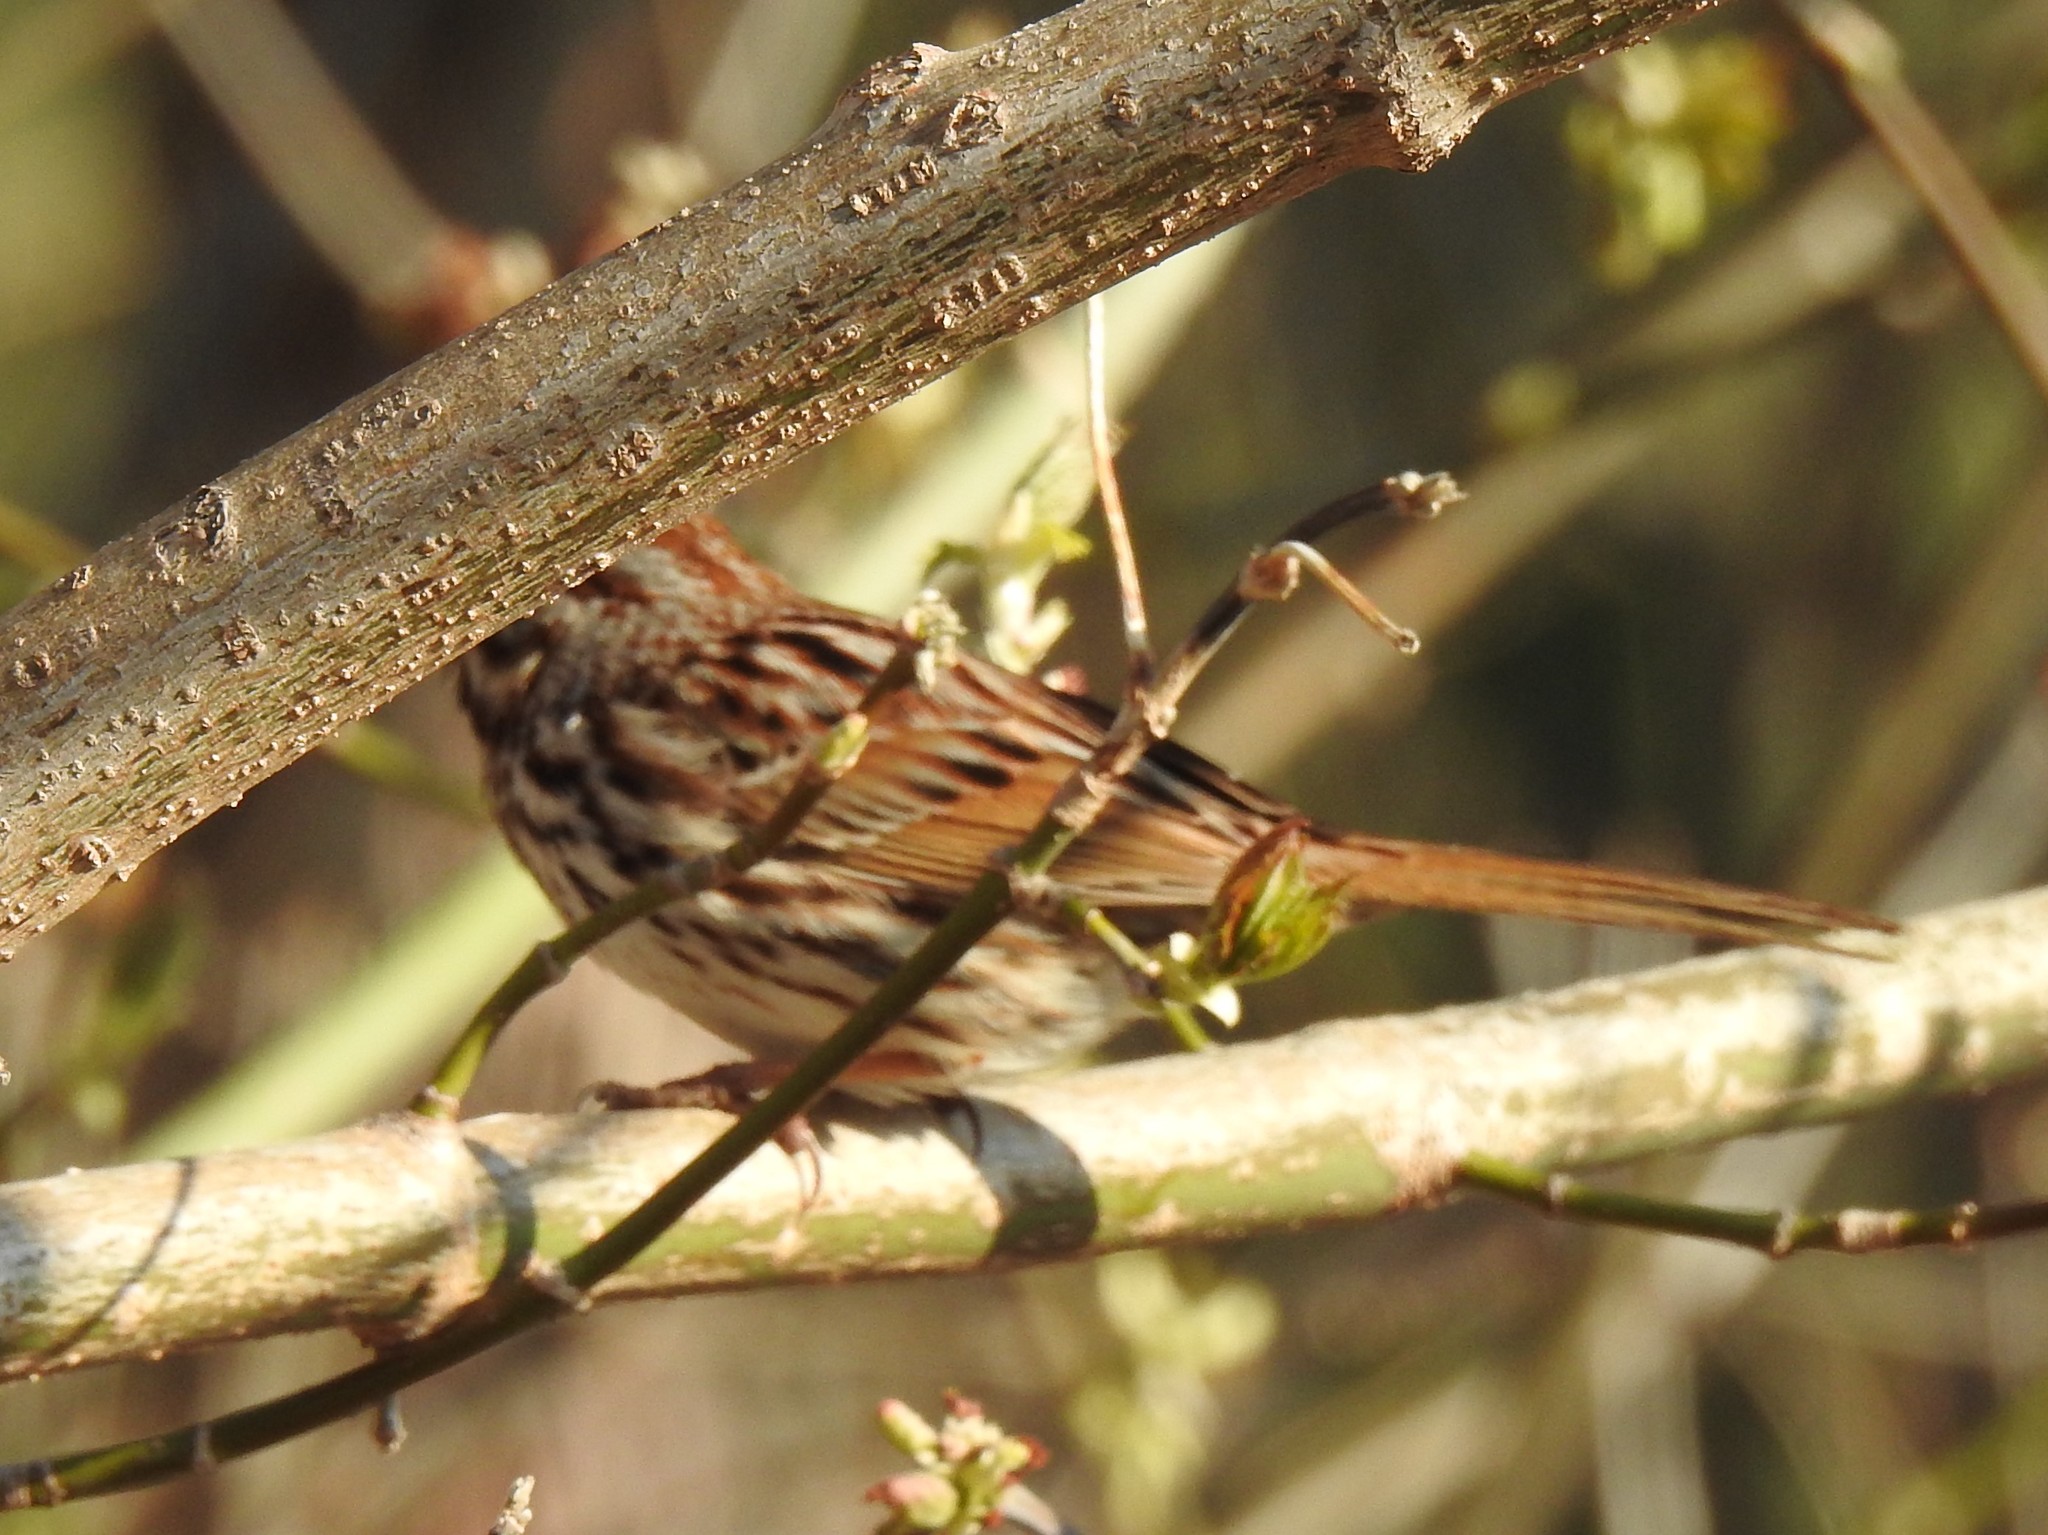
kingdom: Animalia
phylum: Chordata
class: Aves
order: Passeriformes
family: Passerellidae
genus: Melospiza
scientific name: Melospiza melodia
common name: Song sparrow
